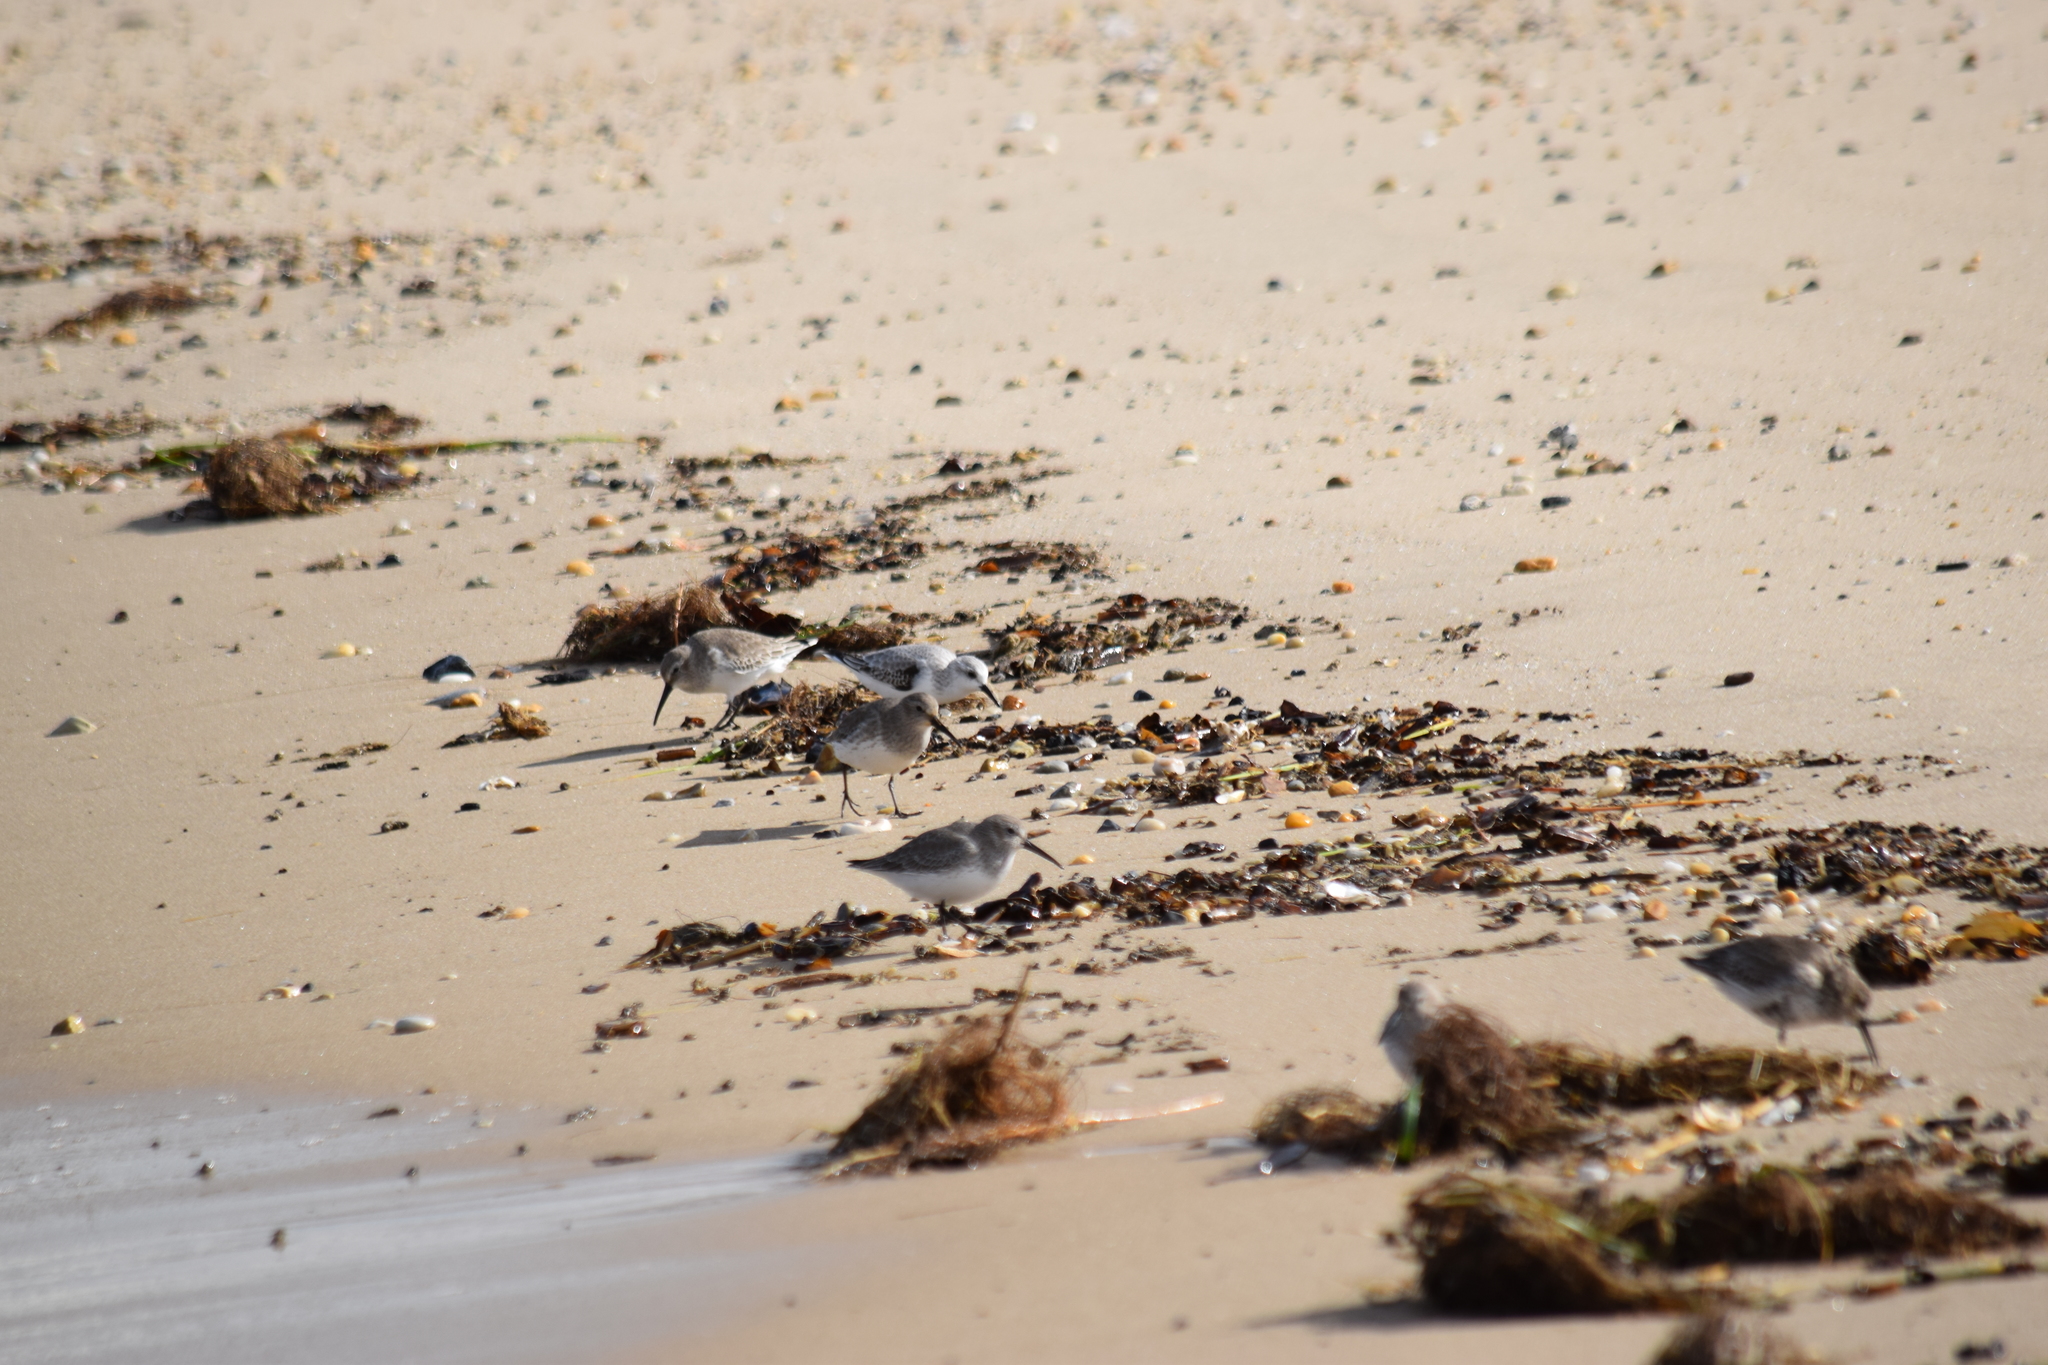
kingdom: Animalia
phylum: Chordata
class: Aves
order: Charadriiformes
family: Scolopacidae
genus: Calidris
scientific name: Calidris alpina
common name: Dunlin
